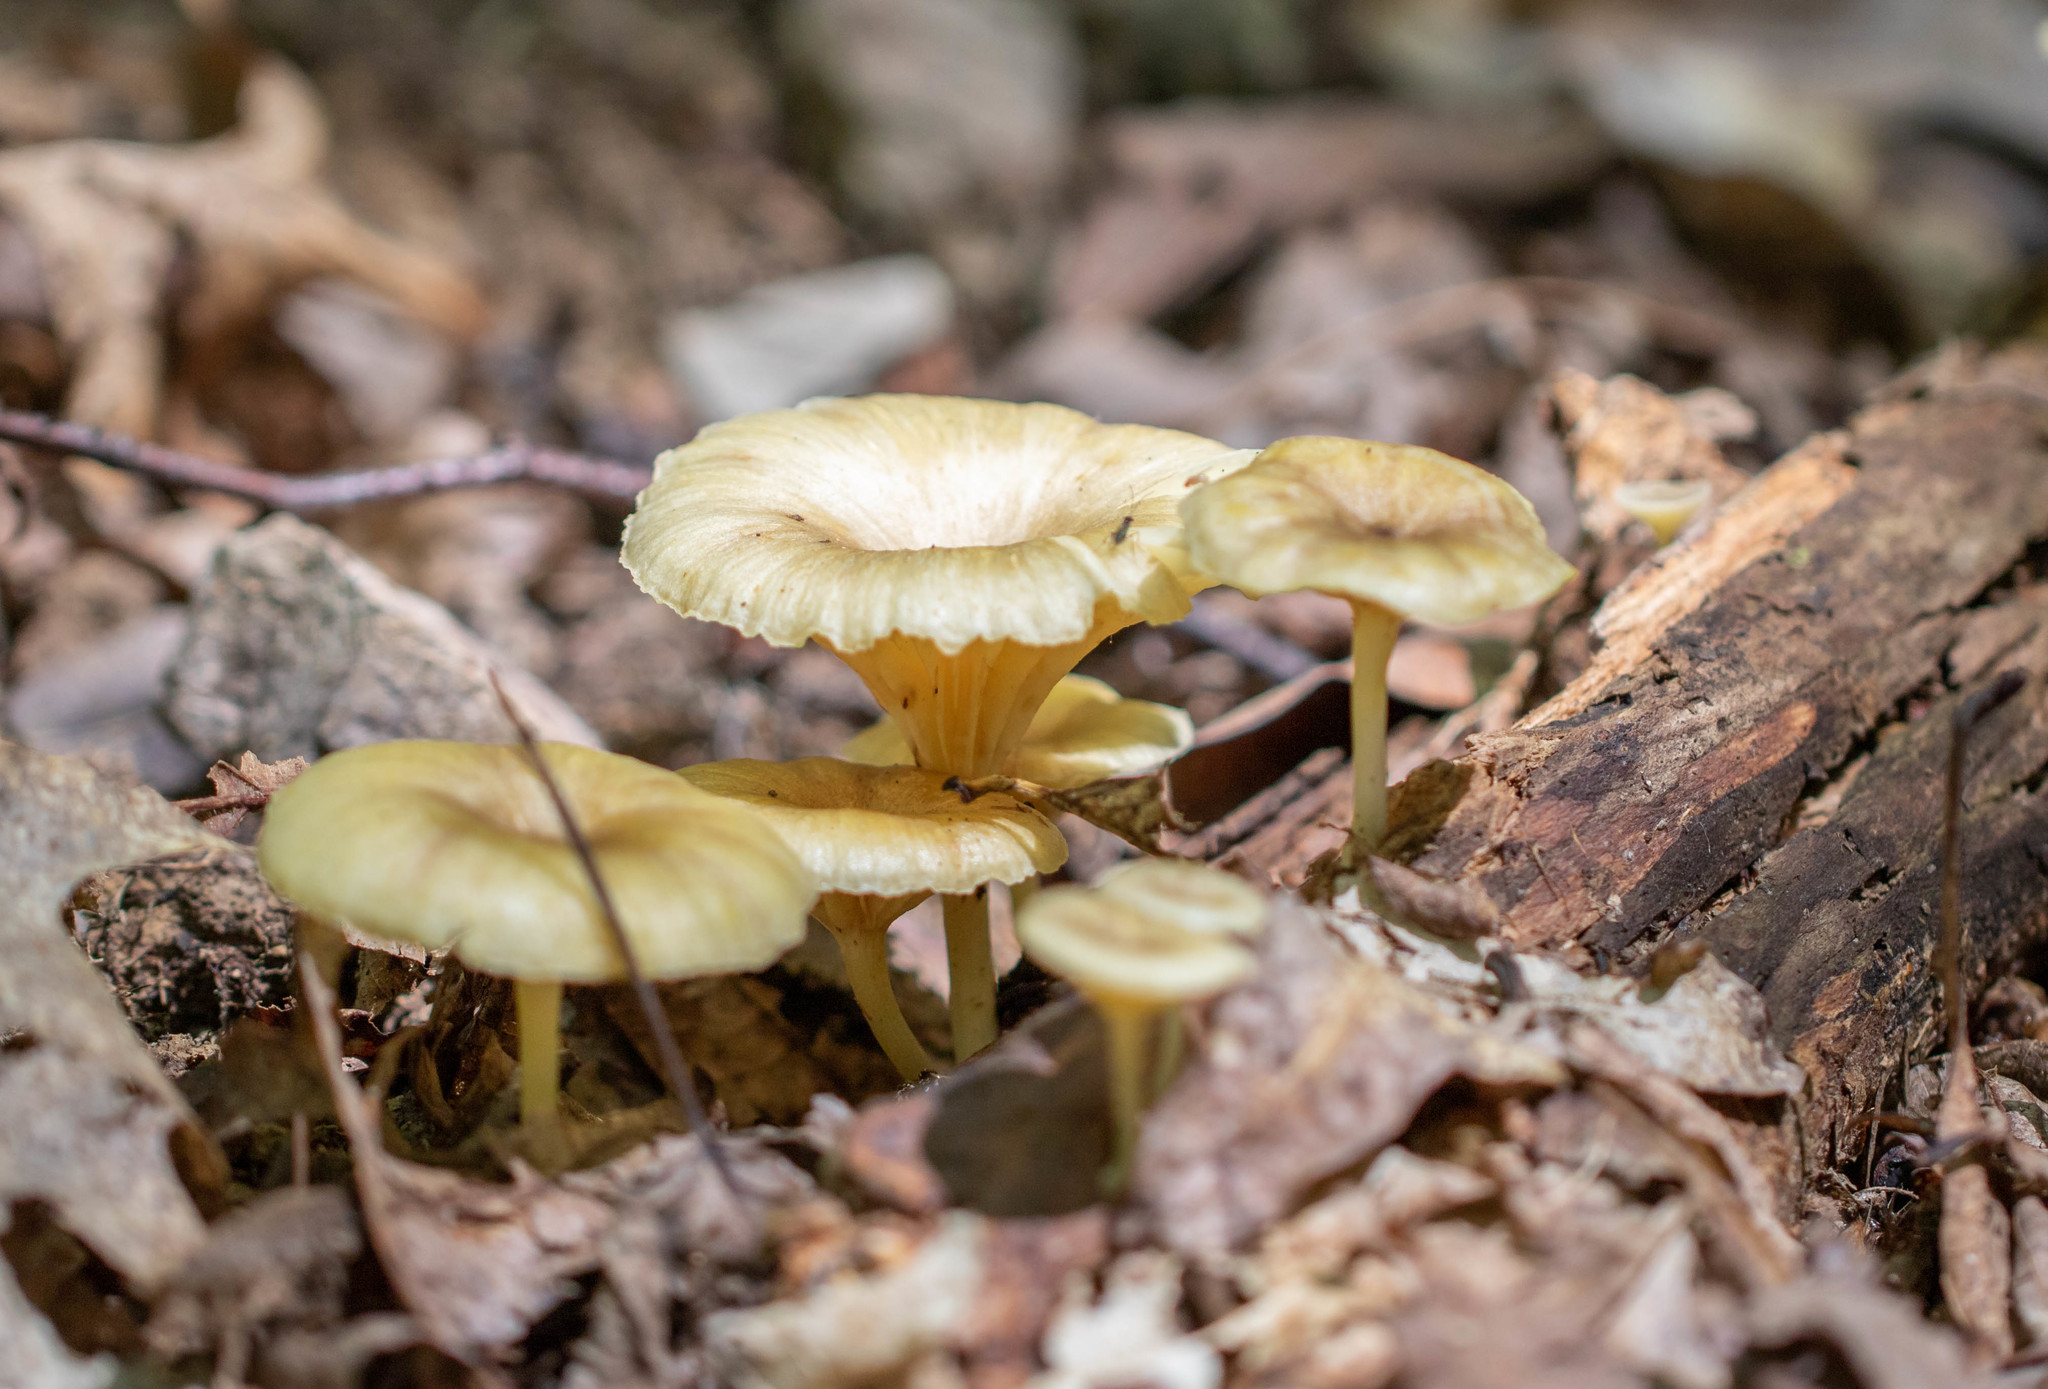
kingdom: Fungi
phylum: Basidiomycota
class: Agaricomycetes
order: Agaricales
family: Marasmiaceae
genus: Gerronema
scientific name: Gerronema strombodes
